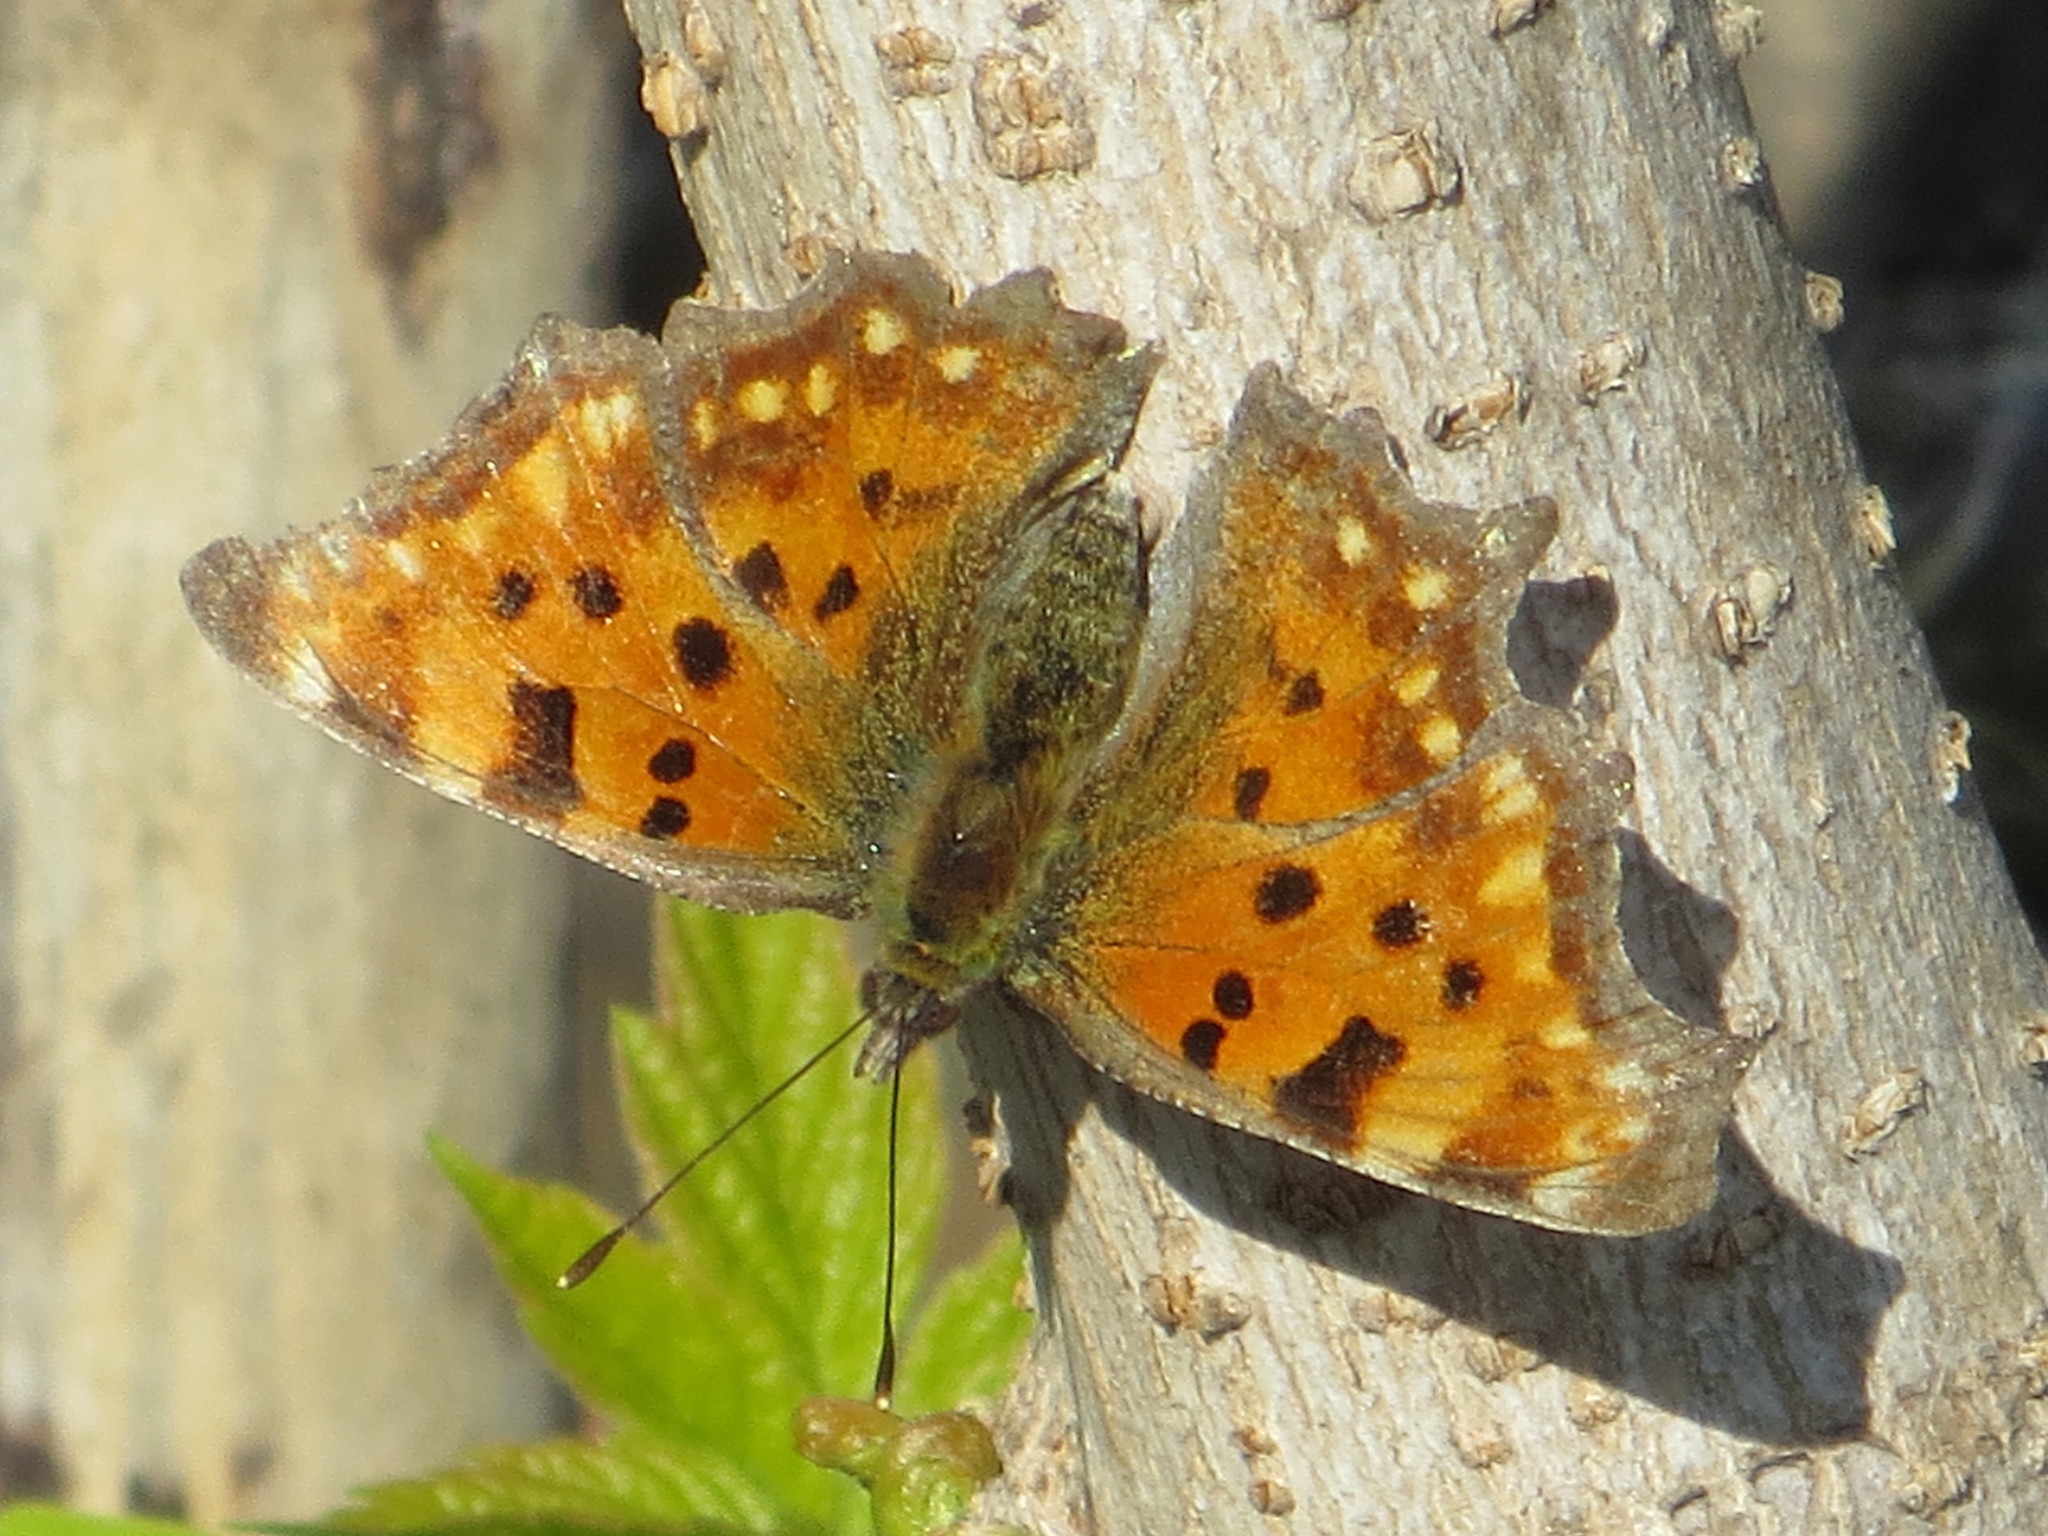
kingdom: Animalia
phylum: Arthropoda
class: Insecta
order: Lepidoptera
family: Nymphalidae
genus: Polygonia
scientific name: Polygonia c-album
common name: Comma
